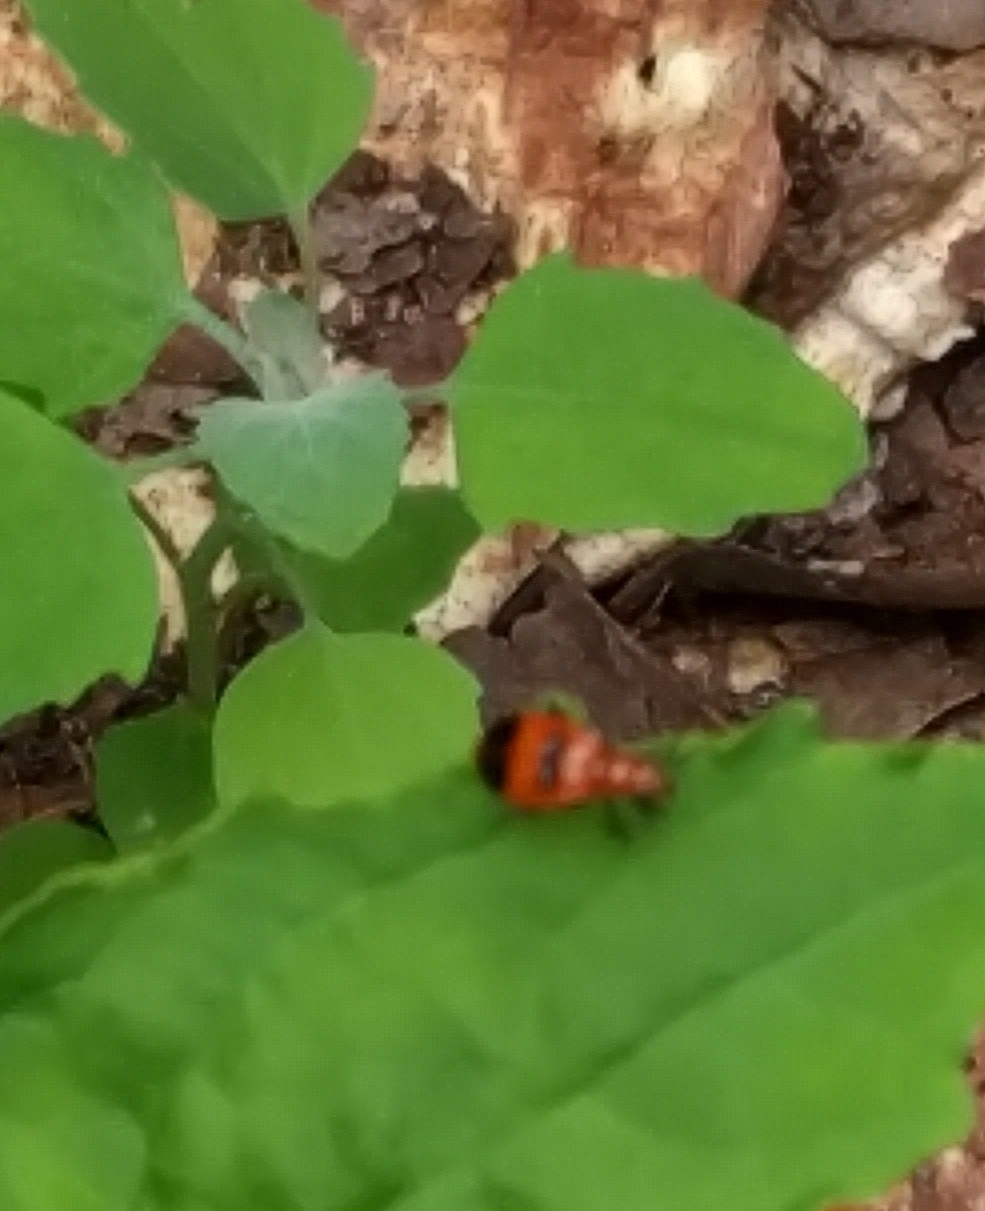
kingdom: Animalia
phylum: Arthropoda
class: Insecta
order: Coleoptera
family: Chrysomelidae
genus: Neolema
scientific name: Neolema sexpunctata
